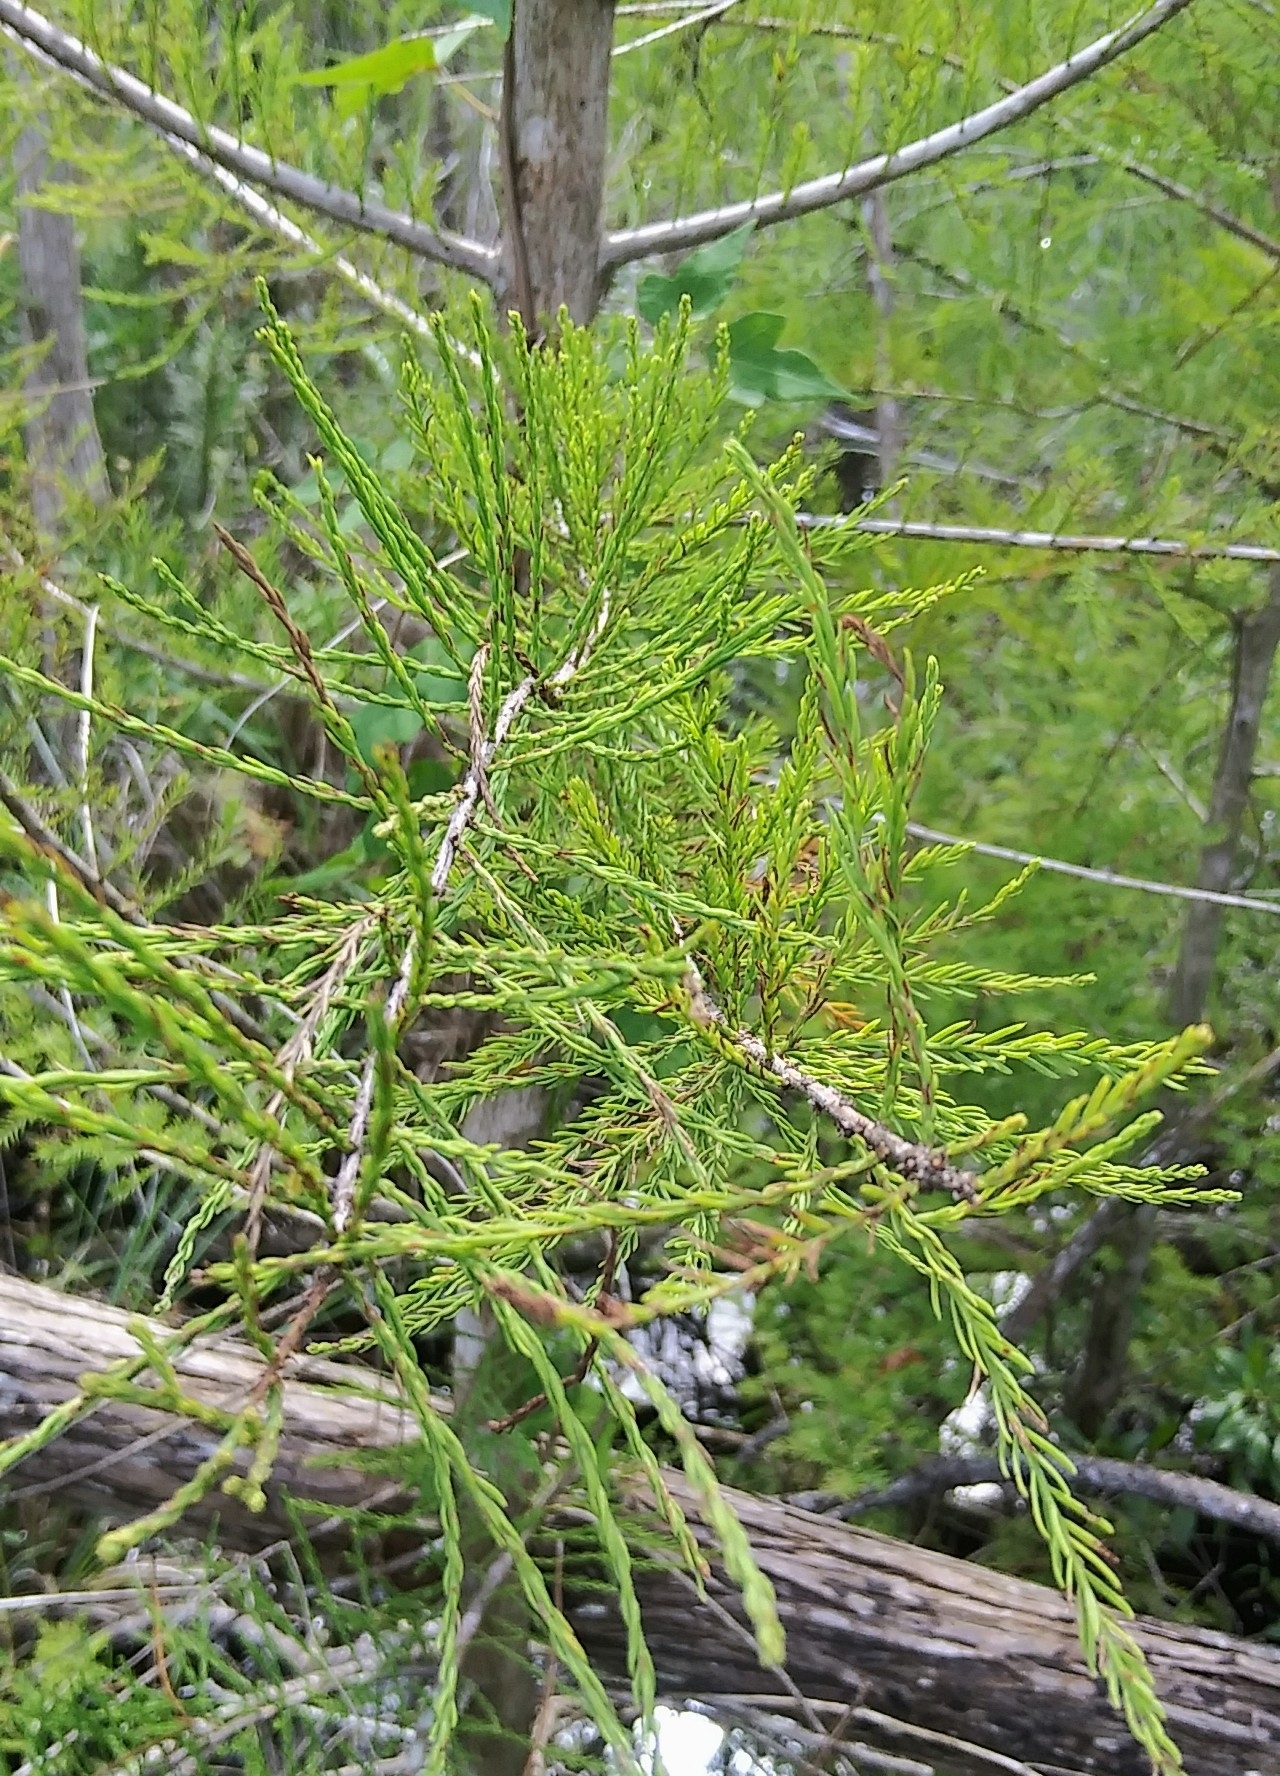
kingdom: Plantae
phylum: Tracheophyta
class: Pinopsida
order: Pinales
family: Cupressaceae
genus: Taxodium
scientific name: Taxodium distichum
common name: Bald cypress
